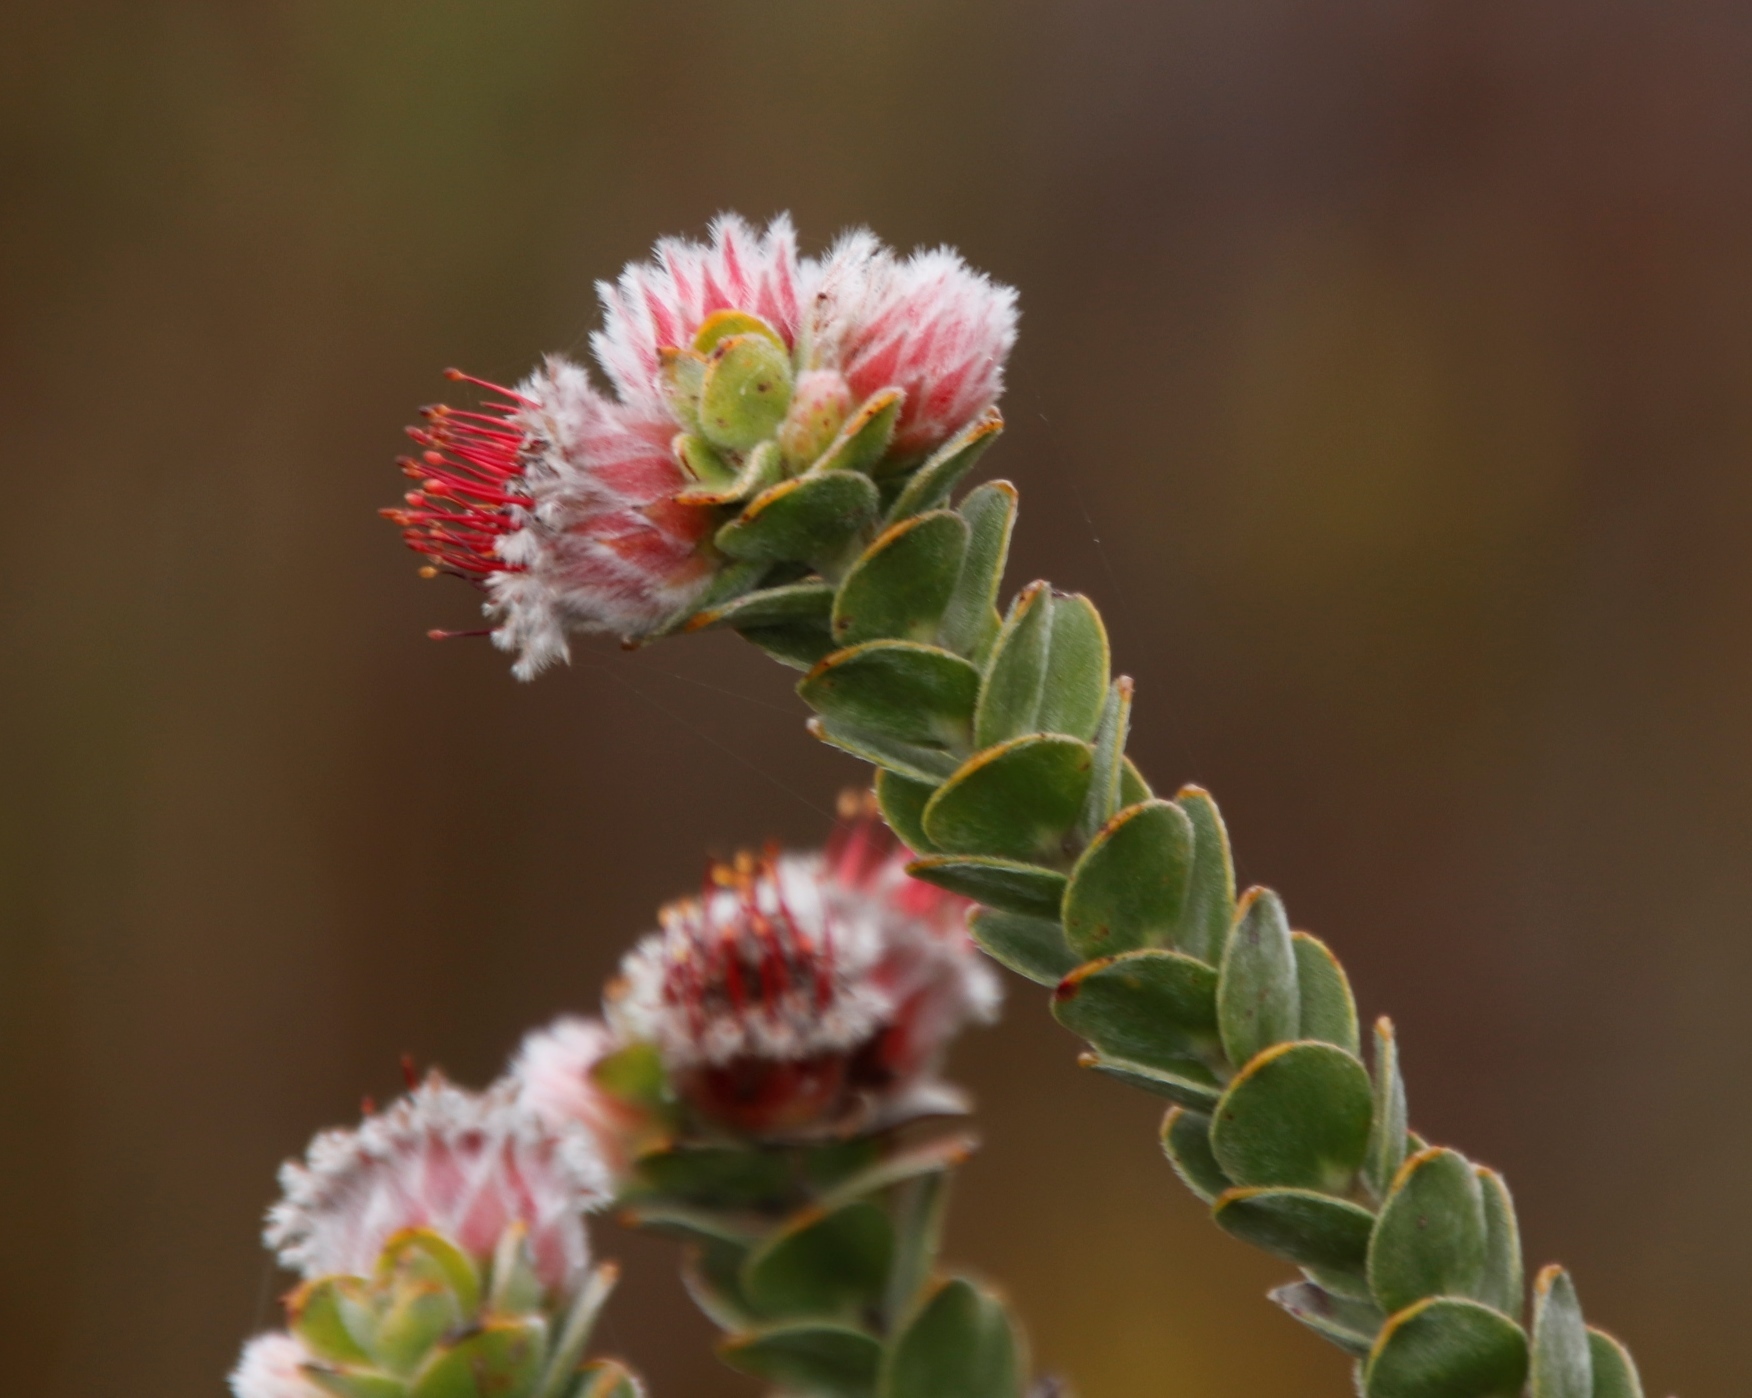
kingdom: Plantae
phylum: Tracheophyta
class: Magnoliopsida
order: Proteales
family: Proteaceae
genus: Leucospermum
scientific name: Leucospermum truncatulum
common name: Oval-leaf pincushion
